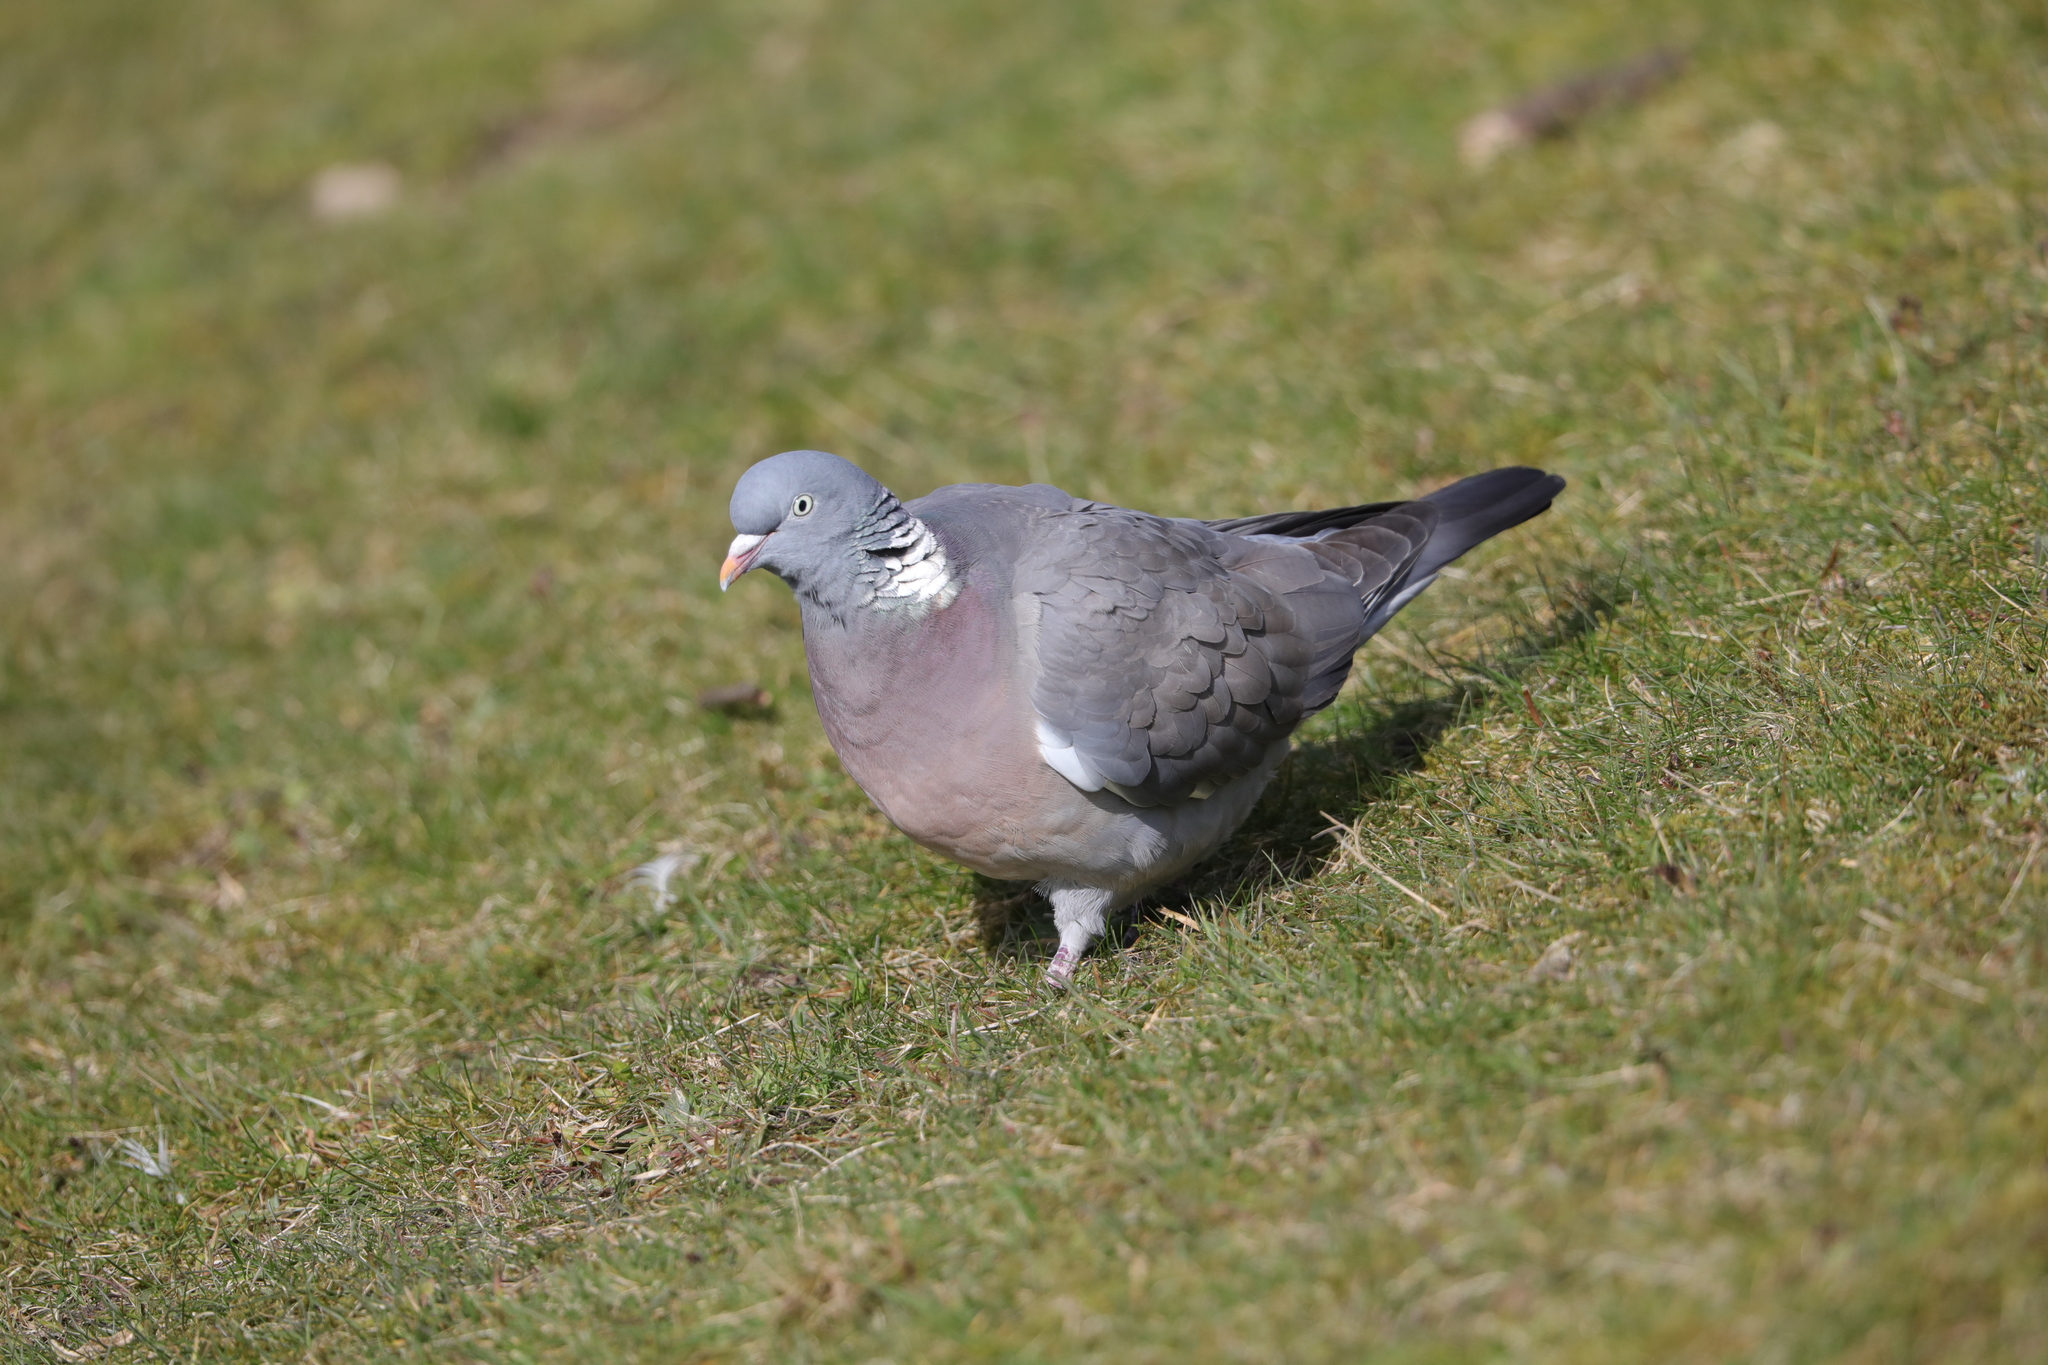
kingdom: Animalia
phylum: Chordata
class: Aves
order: Columbiformes
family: Columbidae
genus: Columba
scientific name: Columba palumbus
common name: Common wood pigeon
